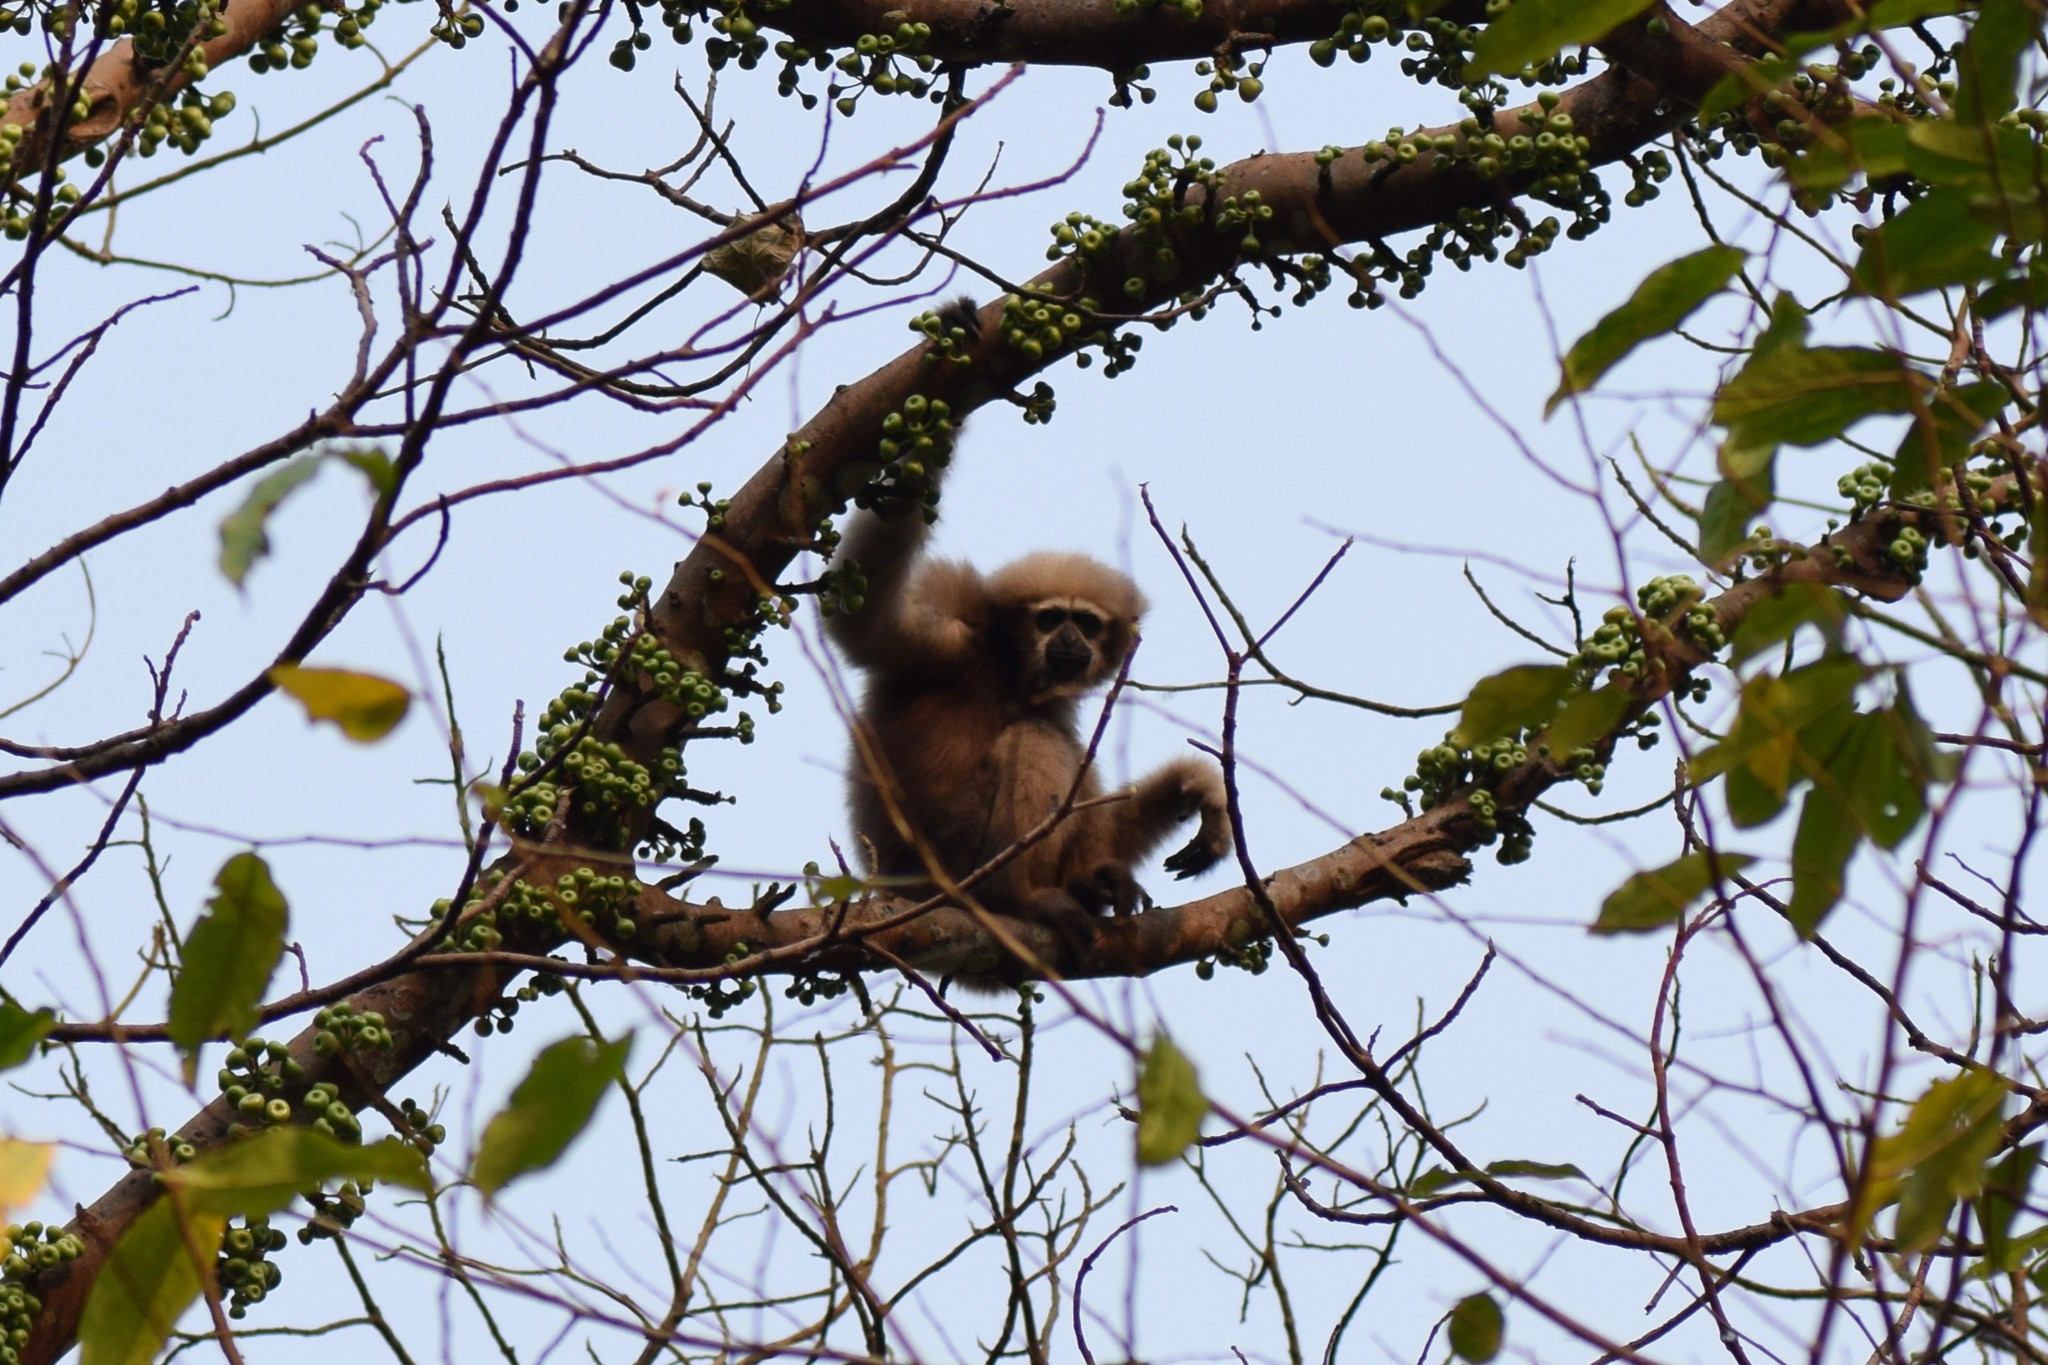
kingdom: Animalia
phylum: Chordata
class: Mammalia
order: Primates
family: Hylobatidae
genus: Hoolock
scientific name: Hoolock hoolock
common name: Western hoolock gibbon
